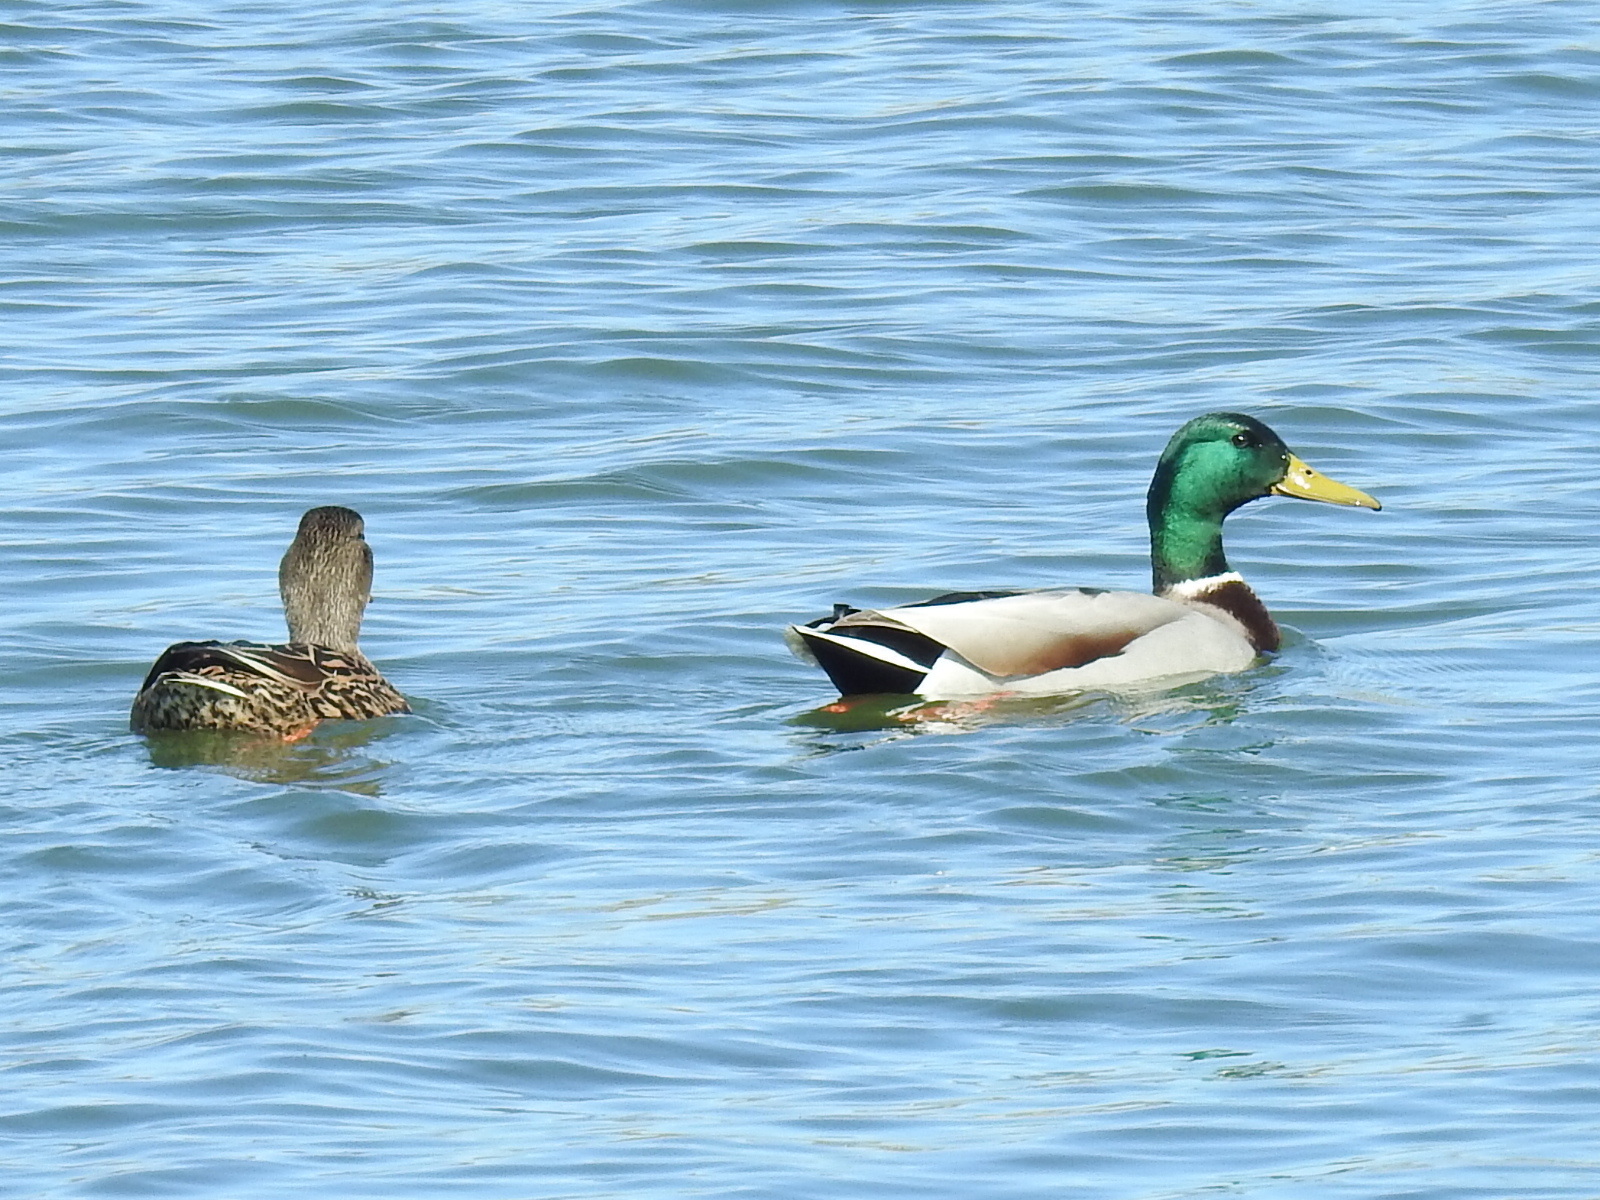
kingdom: Animalia
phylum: Chordata
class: Aves
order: Anseriformes
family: Anatidae
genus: Anas
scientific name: Anas platyrhynchos
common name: Mallard
